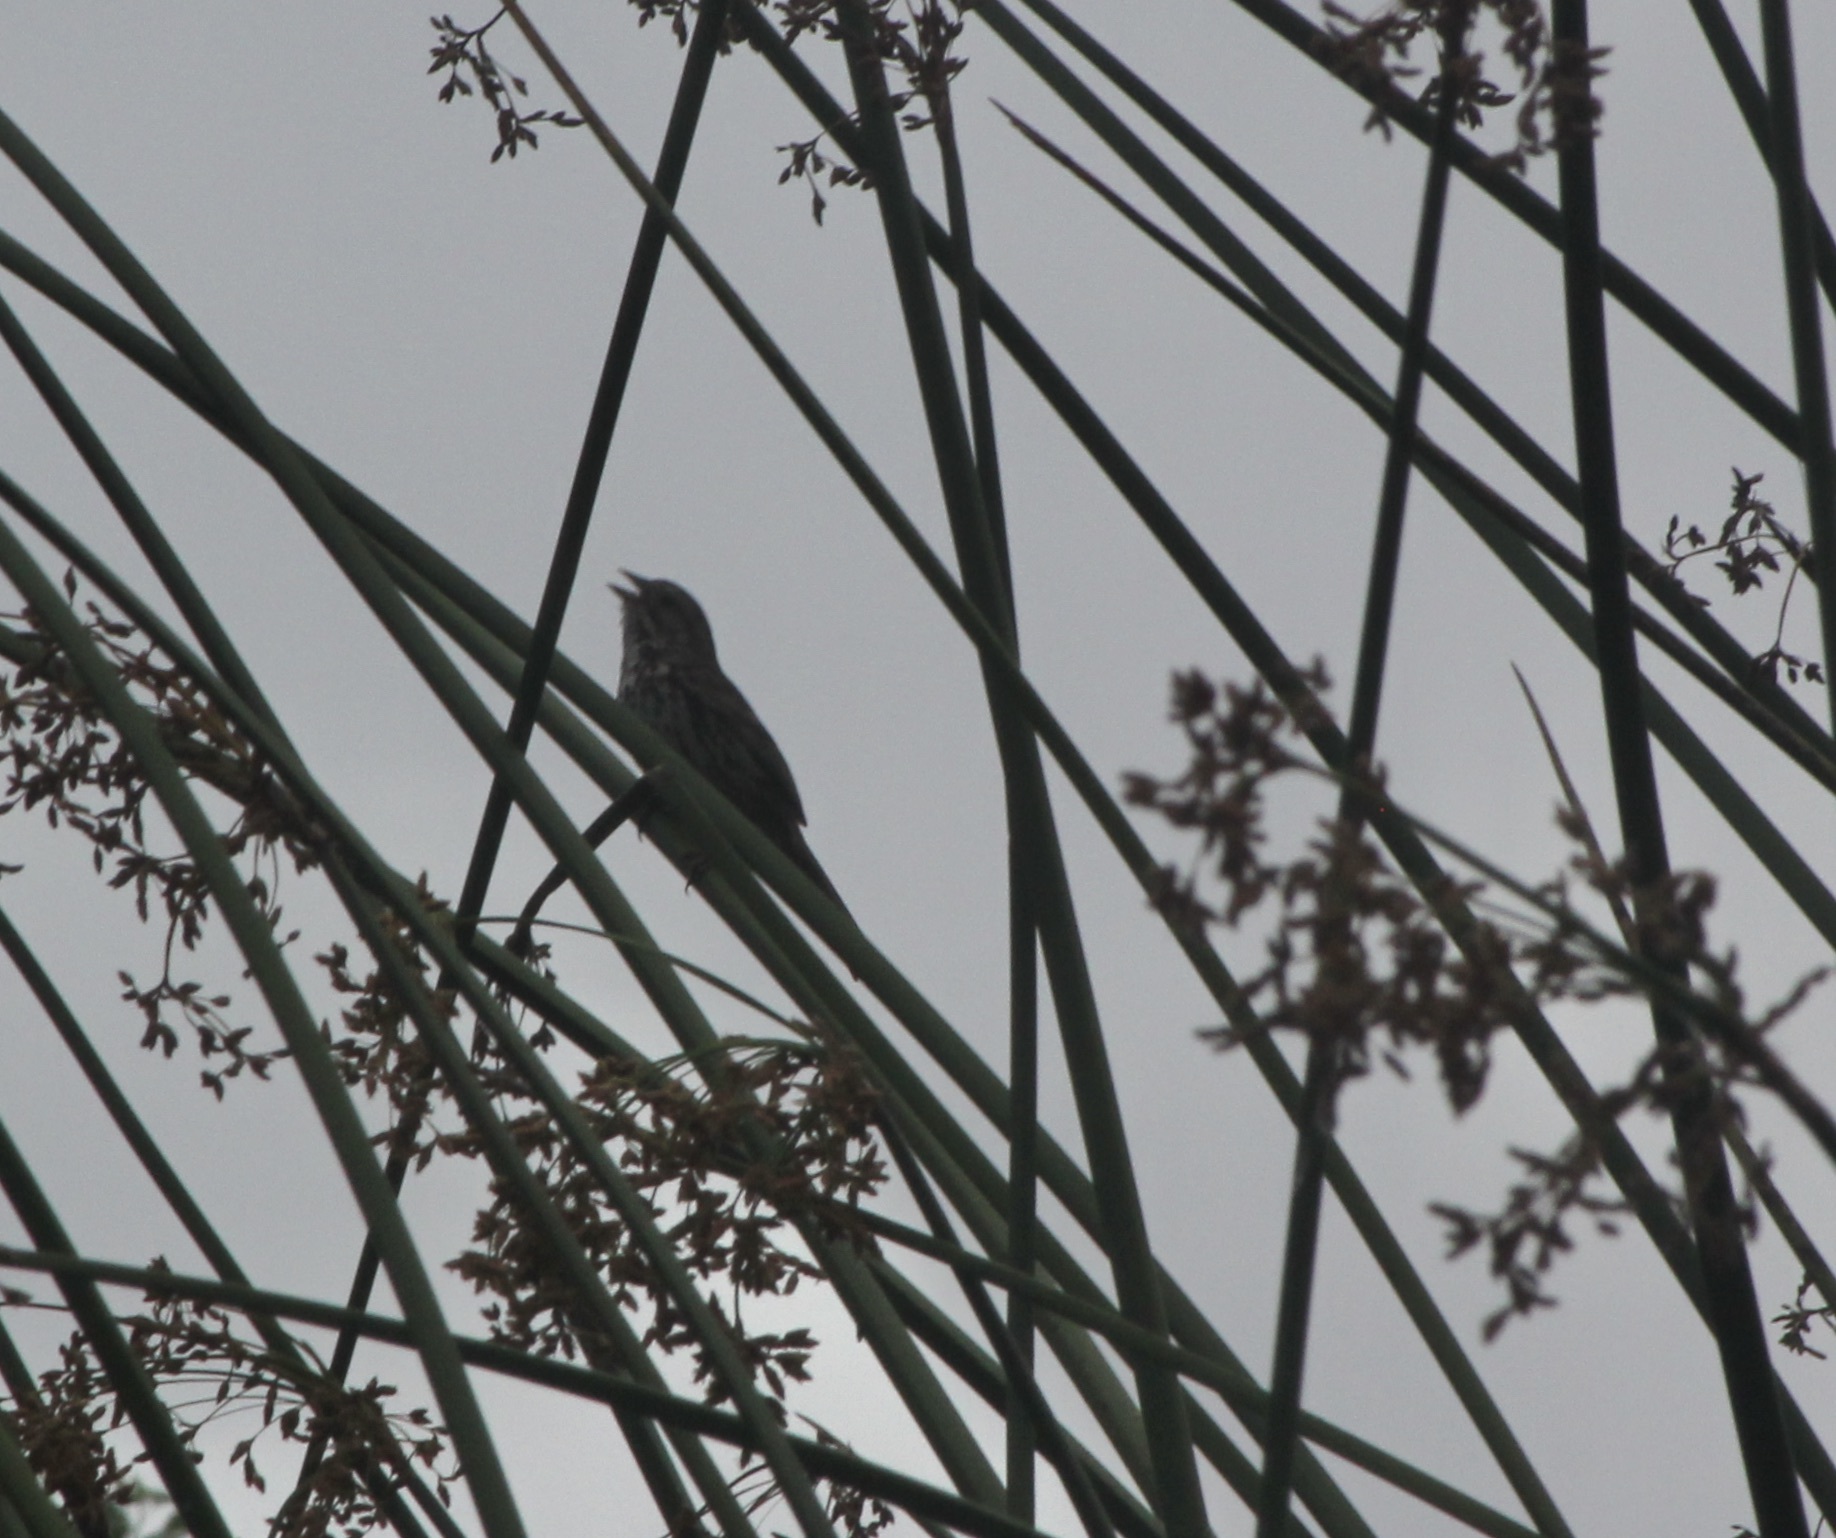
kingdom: Animalia
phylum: Chordata
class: Aves
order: Passeriformes
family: Passerellidae
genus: Melospiza
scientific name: Melospiza melodia
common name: Song sparrow
